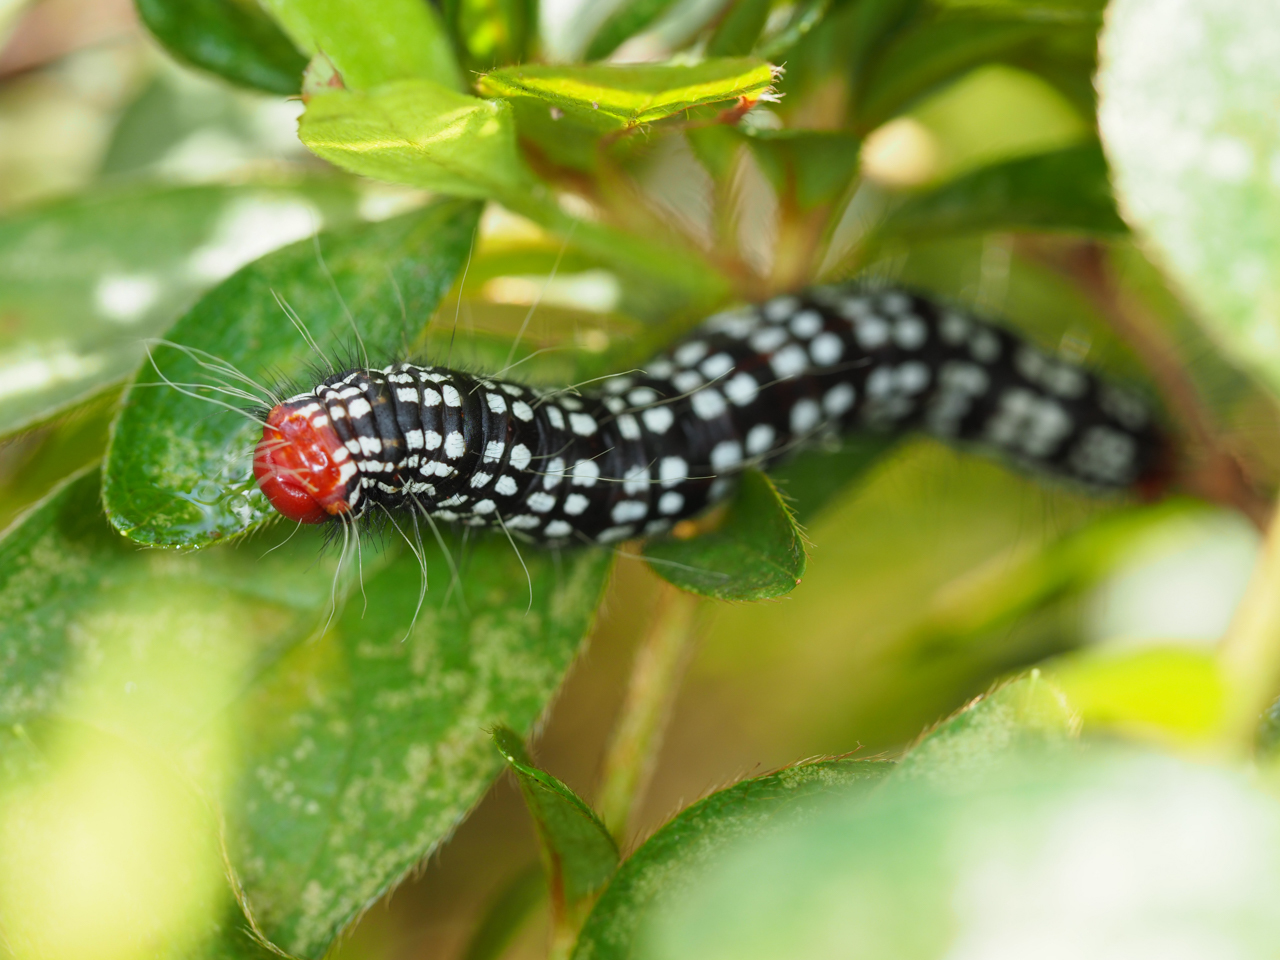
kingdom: Animalia
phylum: Arthropoda
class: Insecta
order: Lepidoptera
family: Notodontidae
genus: Datana
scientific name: Datana major
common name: Azalea caterpillar
